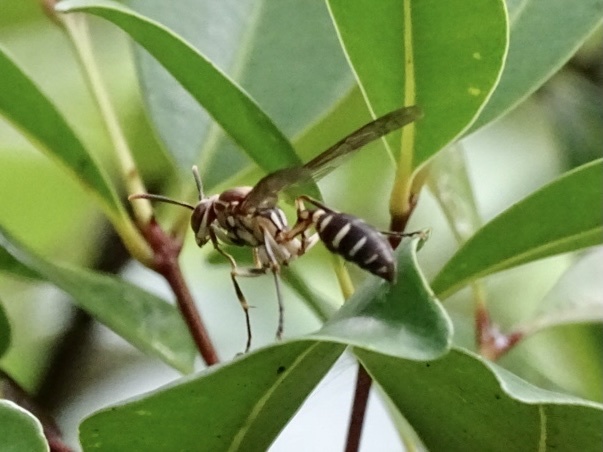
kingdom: Animalia
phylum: Arthropoda
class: Insecta
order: Hymenoptera
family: Vespidae
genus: Parapolybia
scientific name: Parapolybia nodosa
